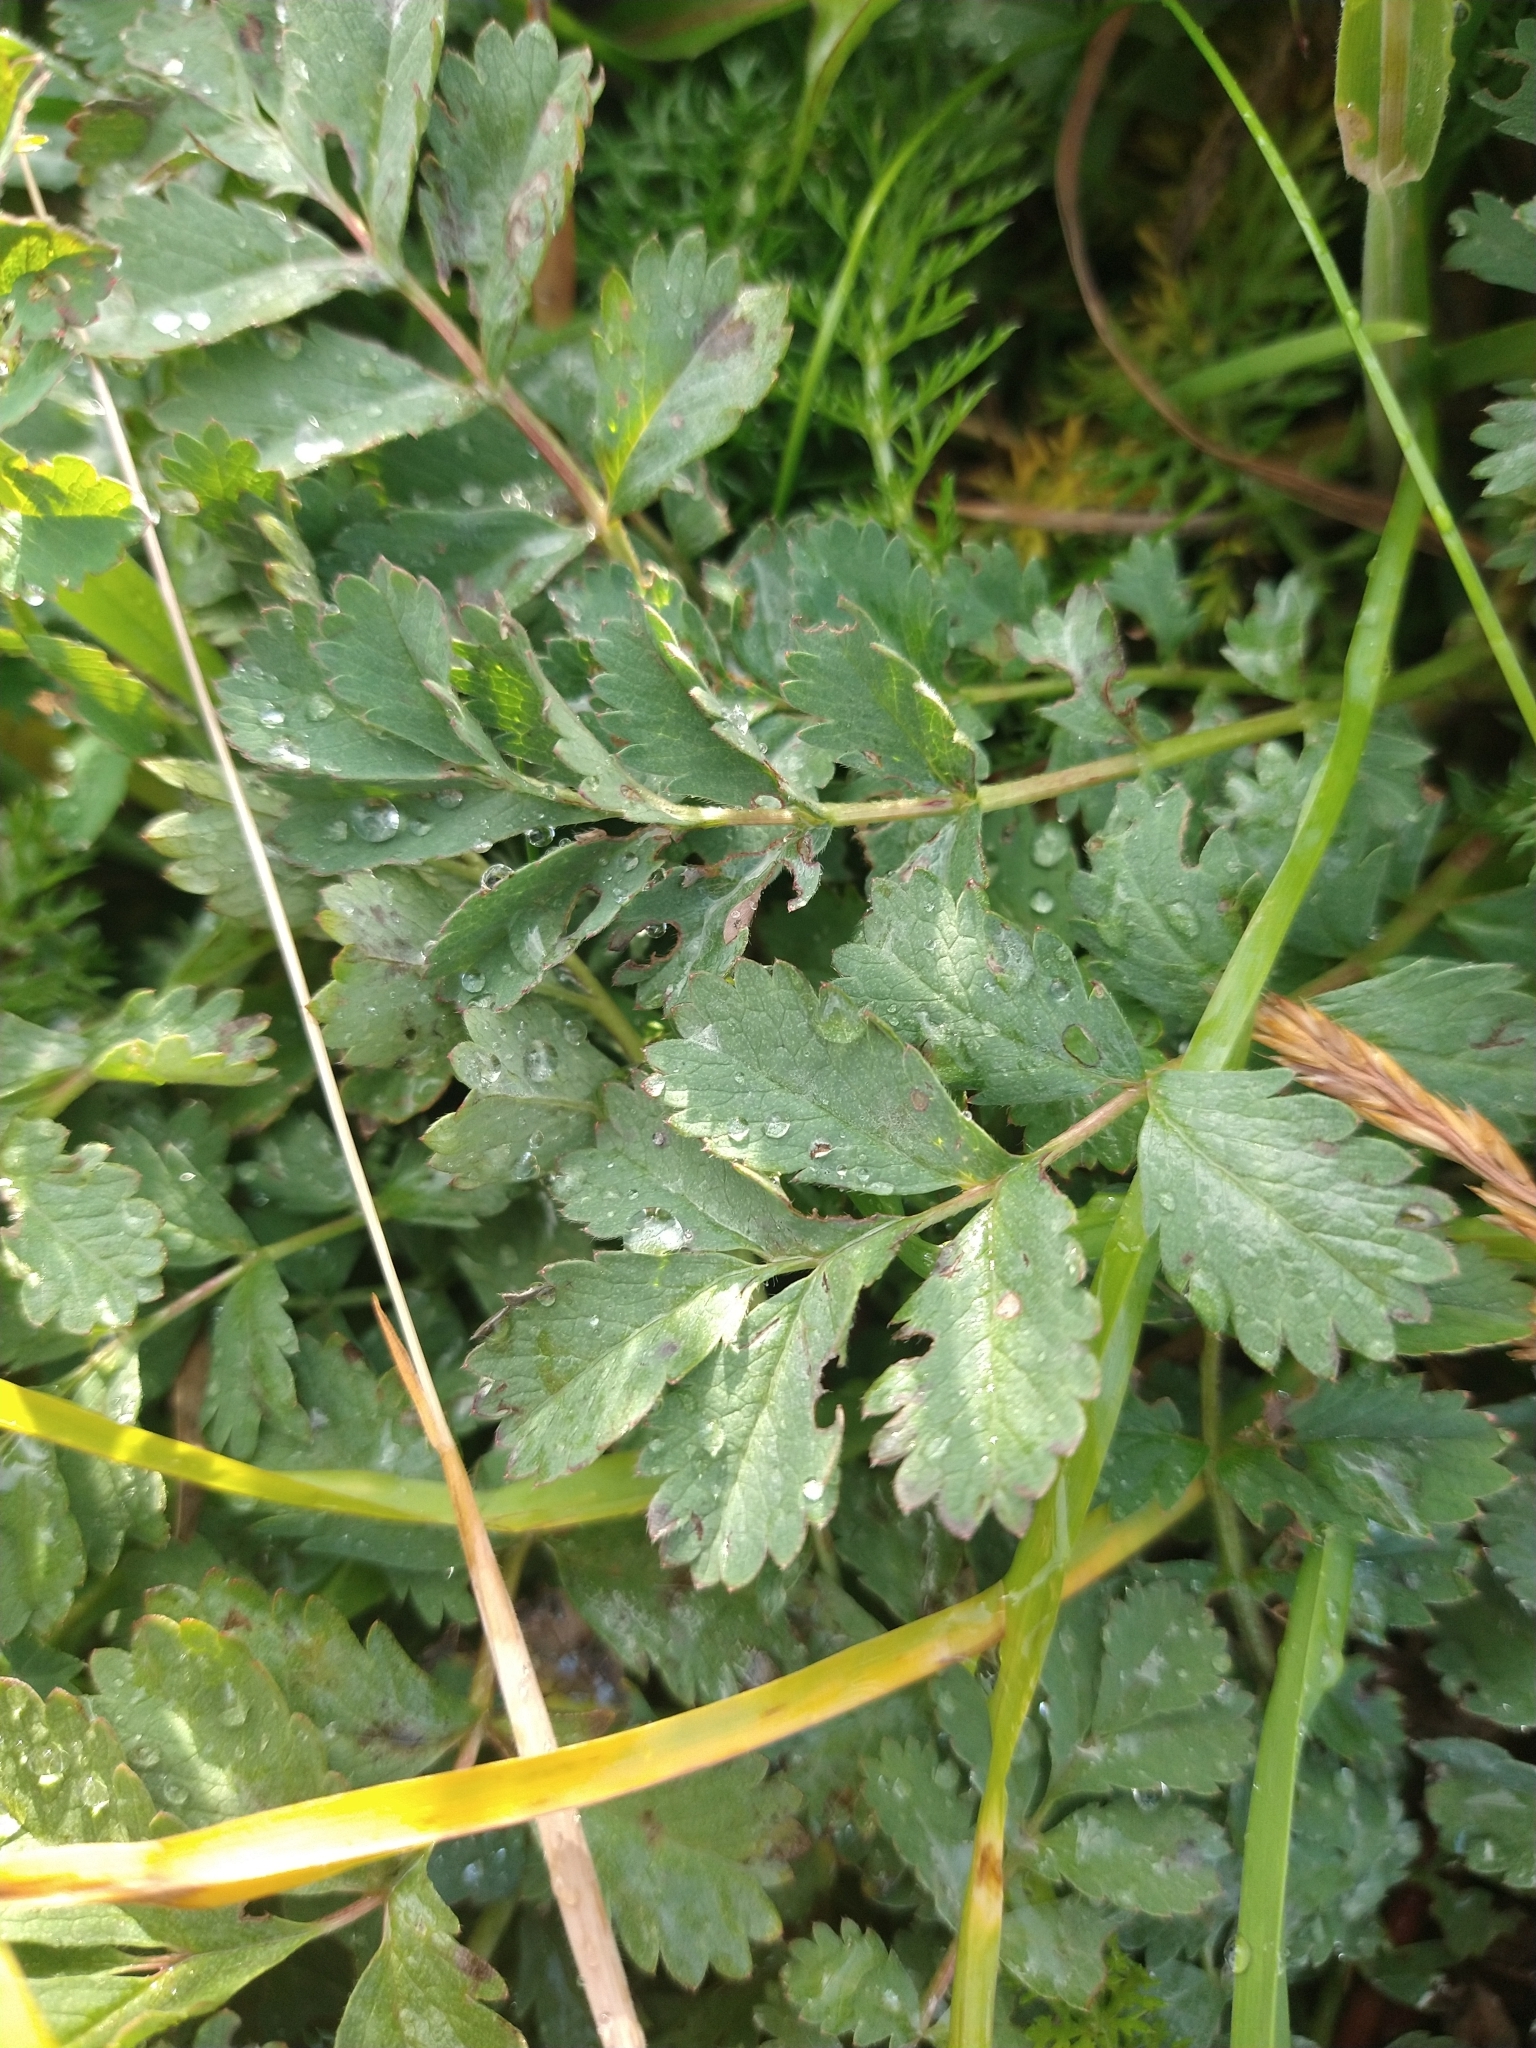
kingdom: Plantae
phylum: Tracheophyta
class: Magnoliopsida
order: Rosales
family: Rosaceae
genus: Acaena
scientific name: Acaena magellanica
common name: New zealand burr
